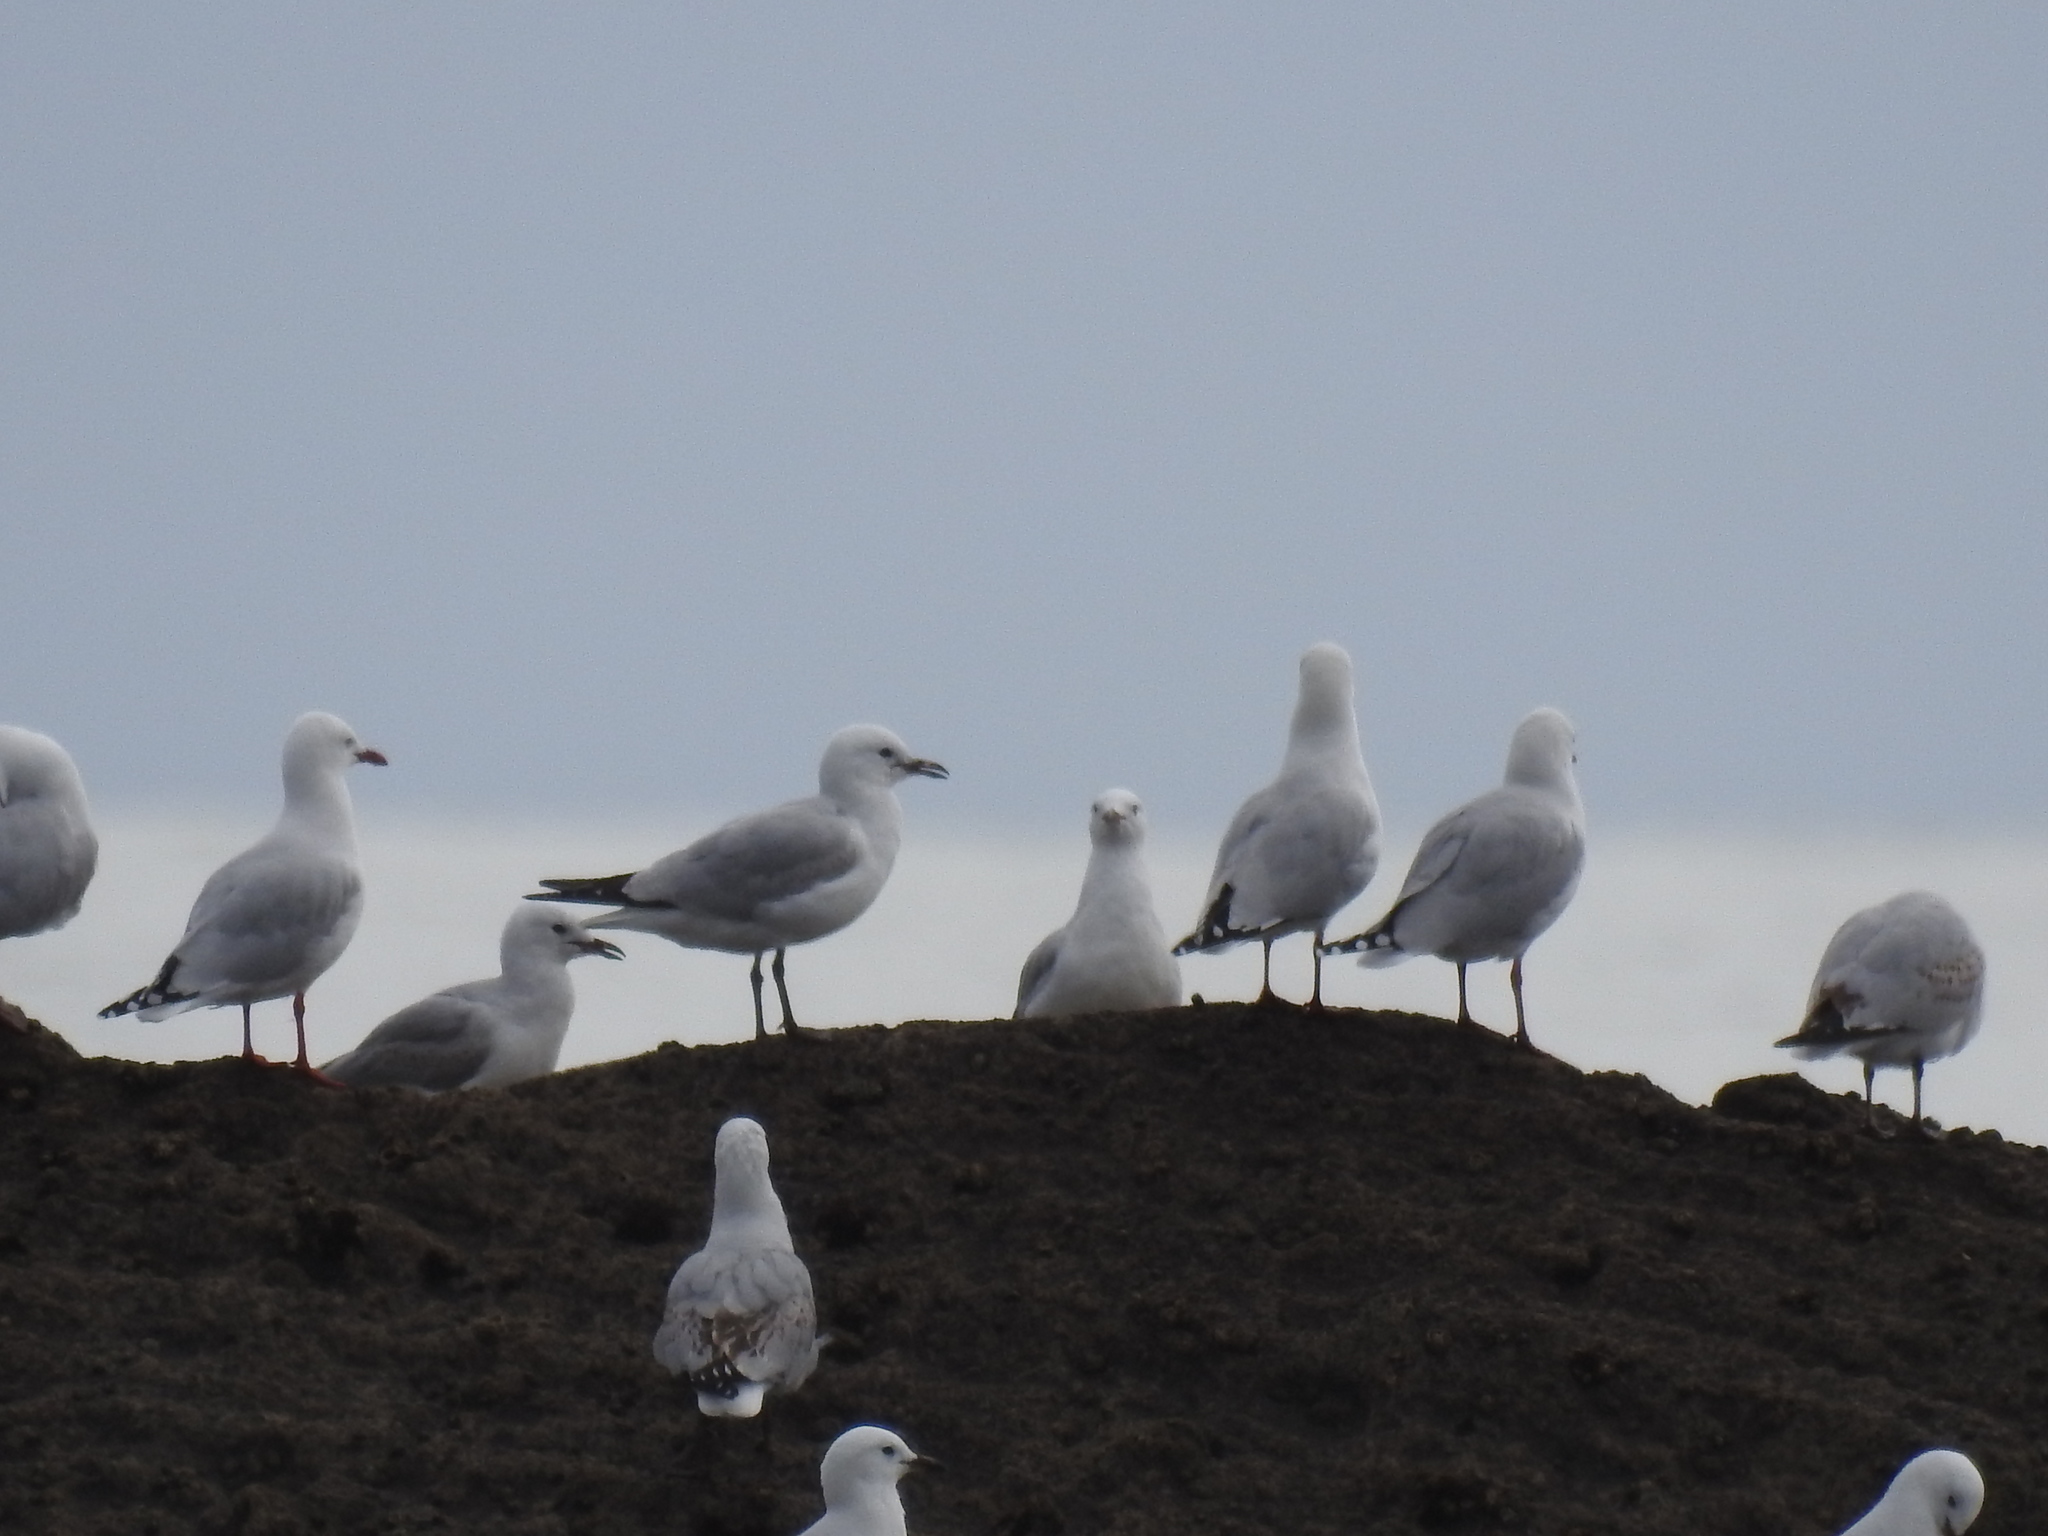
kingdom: Animalia
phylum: Chordata
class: Aves
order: Charadriiformes
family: Laridae
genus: Chroicocephalus
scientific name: Chroicocephalus novaehollandiae
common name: Silver gull
